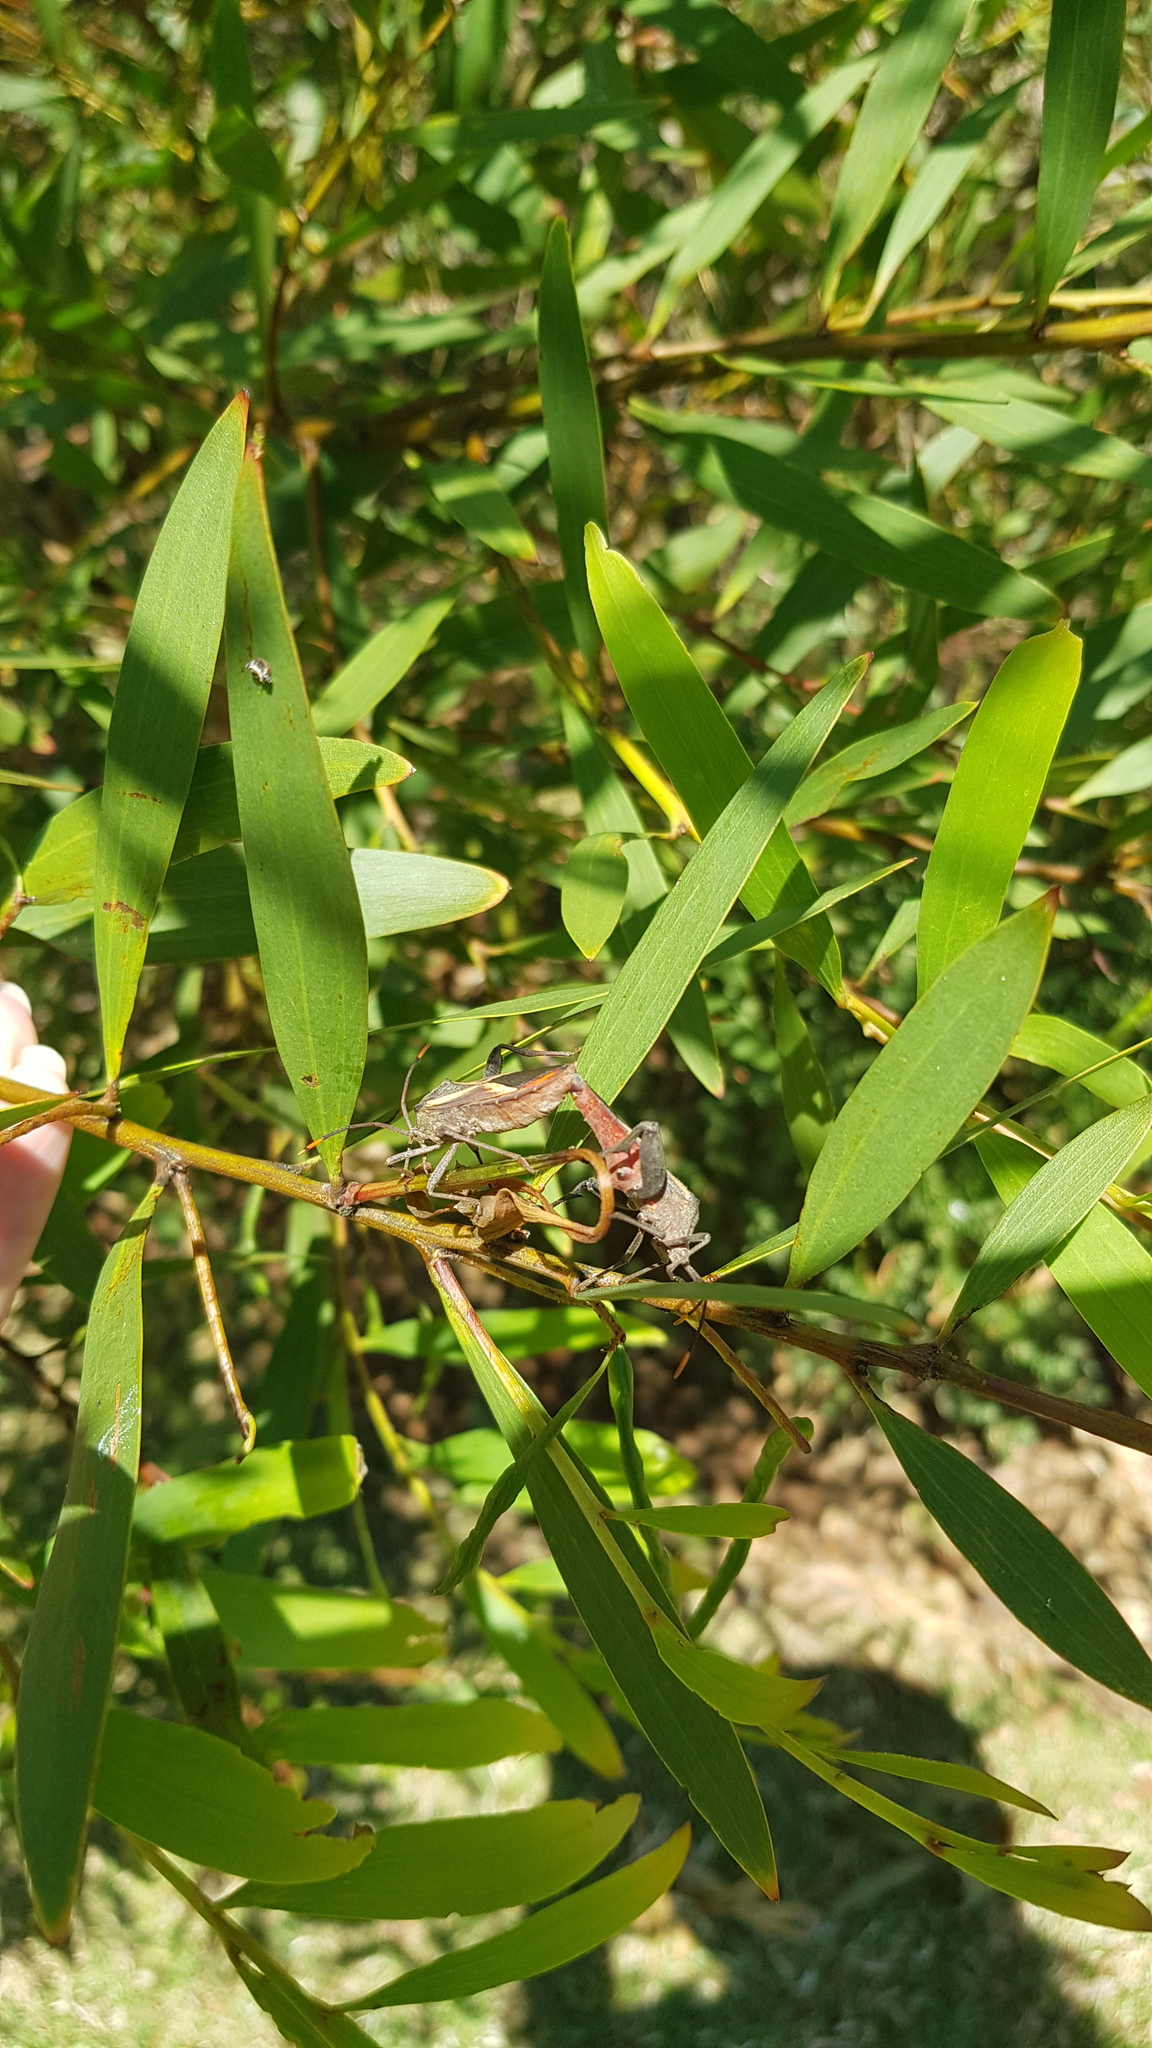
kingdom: Animalia
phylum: Arthropoda
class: Insecta
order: Hemiptera
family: Coreidae
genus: Mictis
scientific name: Mictis profana
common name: Crusader bug
